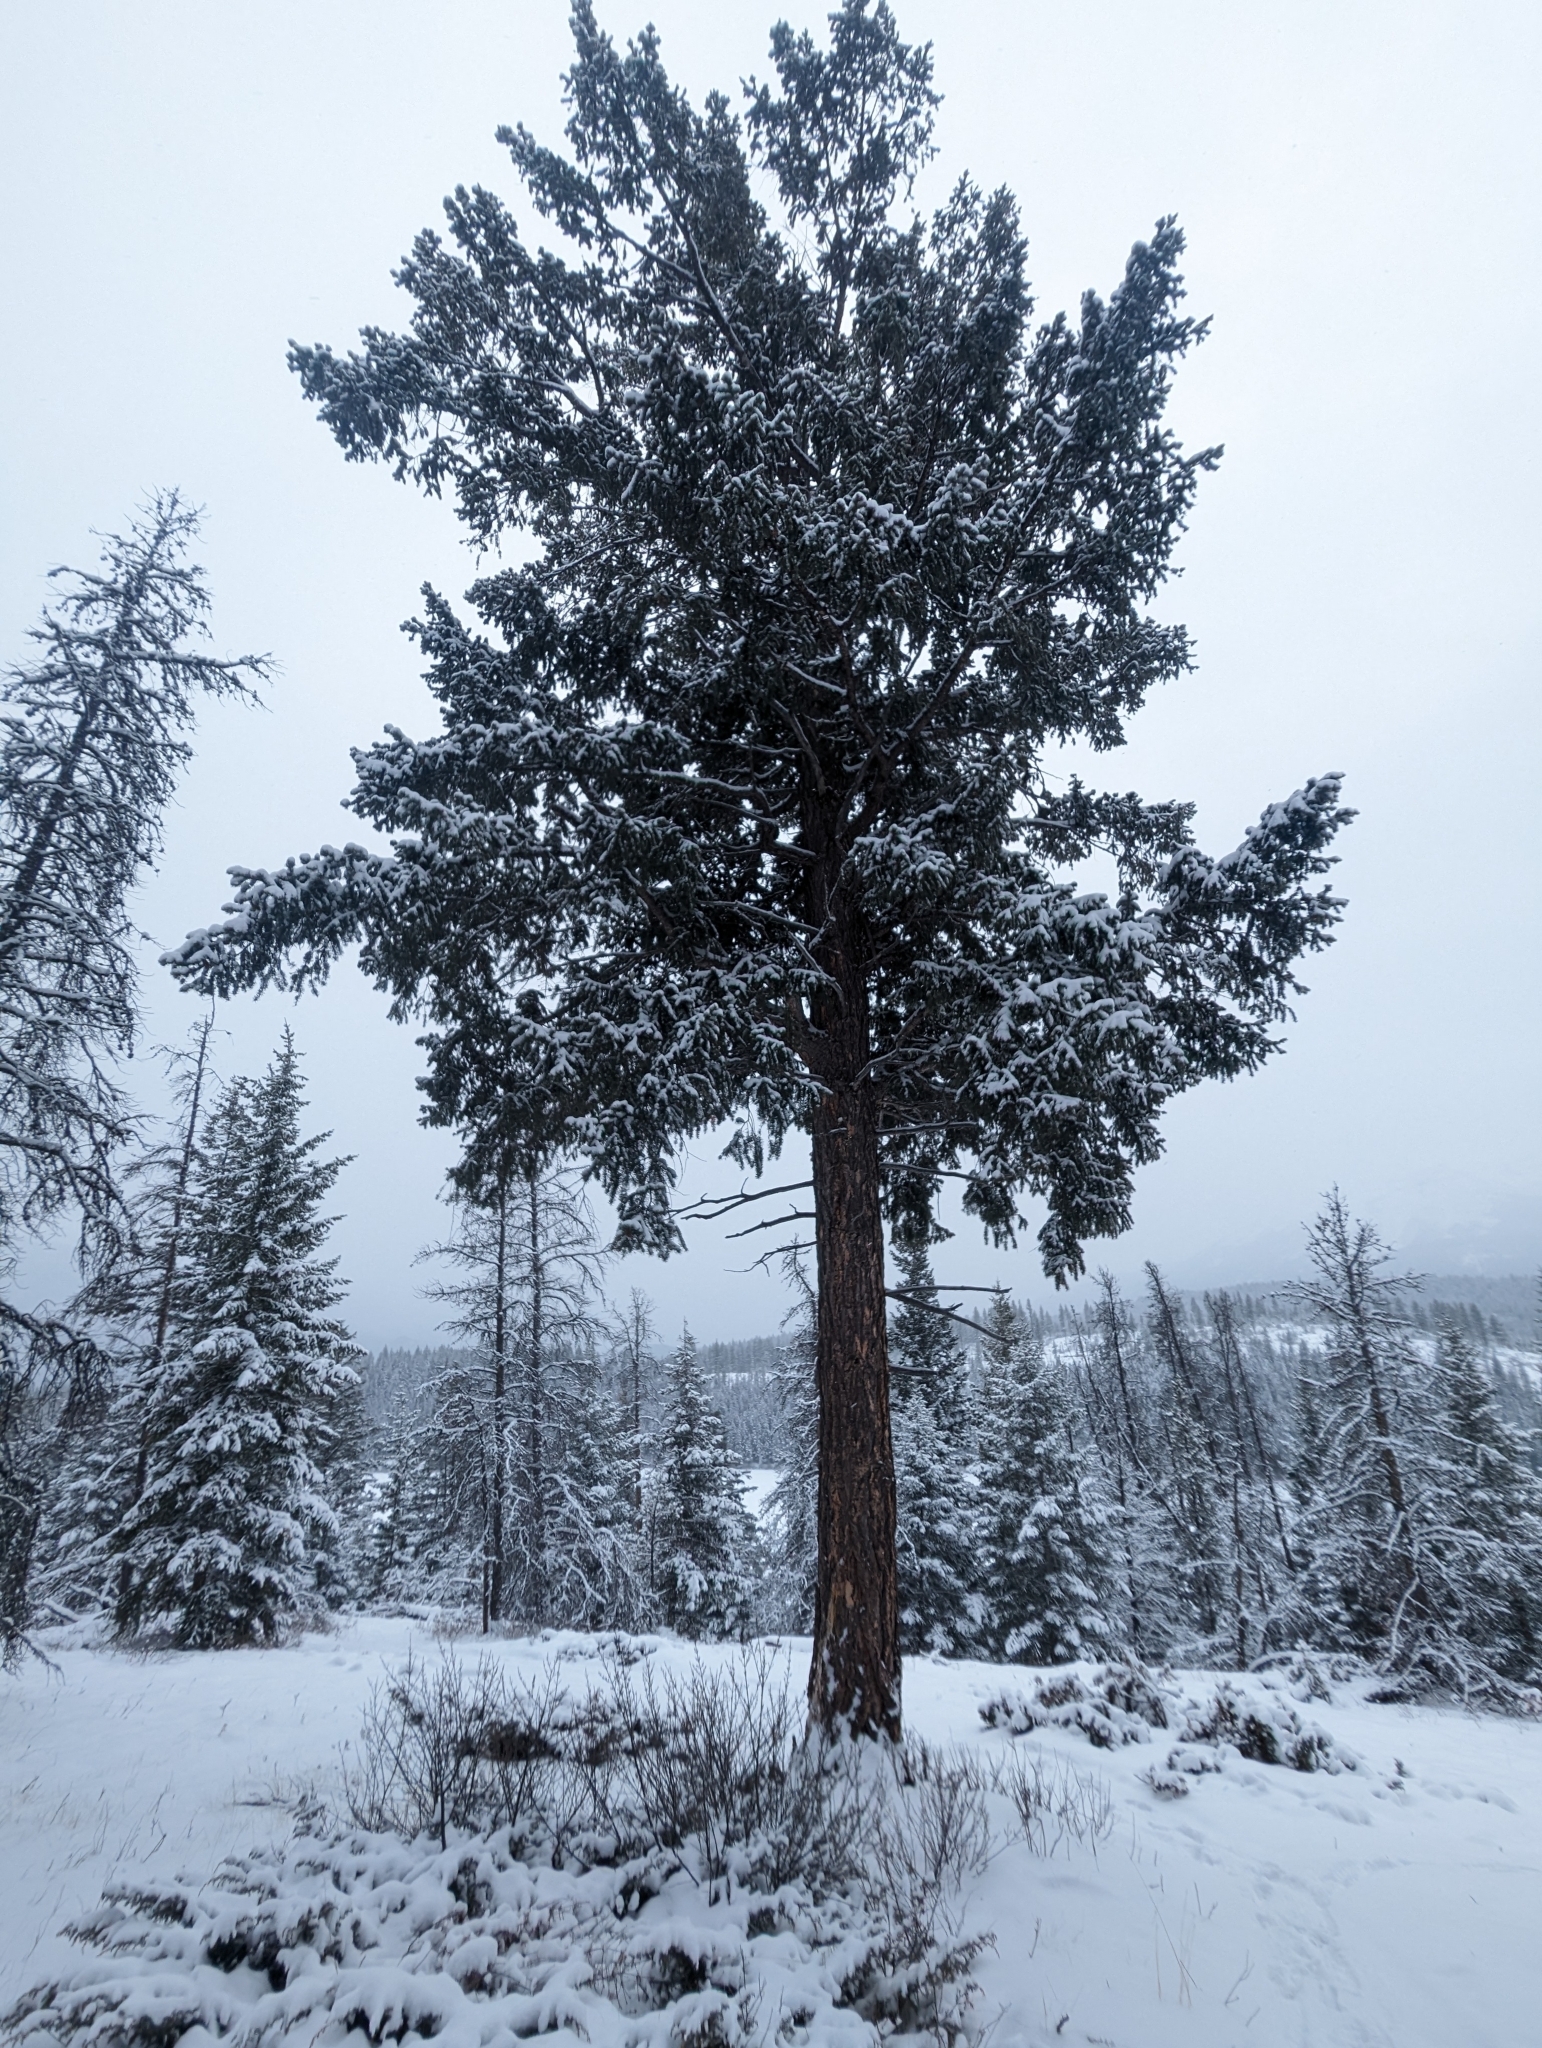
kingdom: Plantae
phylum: Tracheophyta
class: Pinopsida
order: Pinales
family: Pinaceae
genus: Pseudotsuga
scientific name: Pseudotsuga menziesii
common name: Douglas fir
